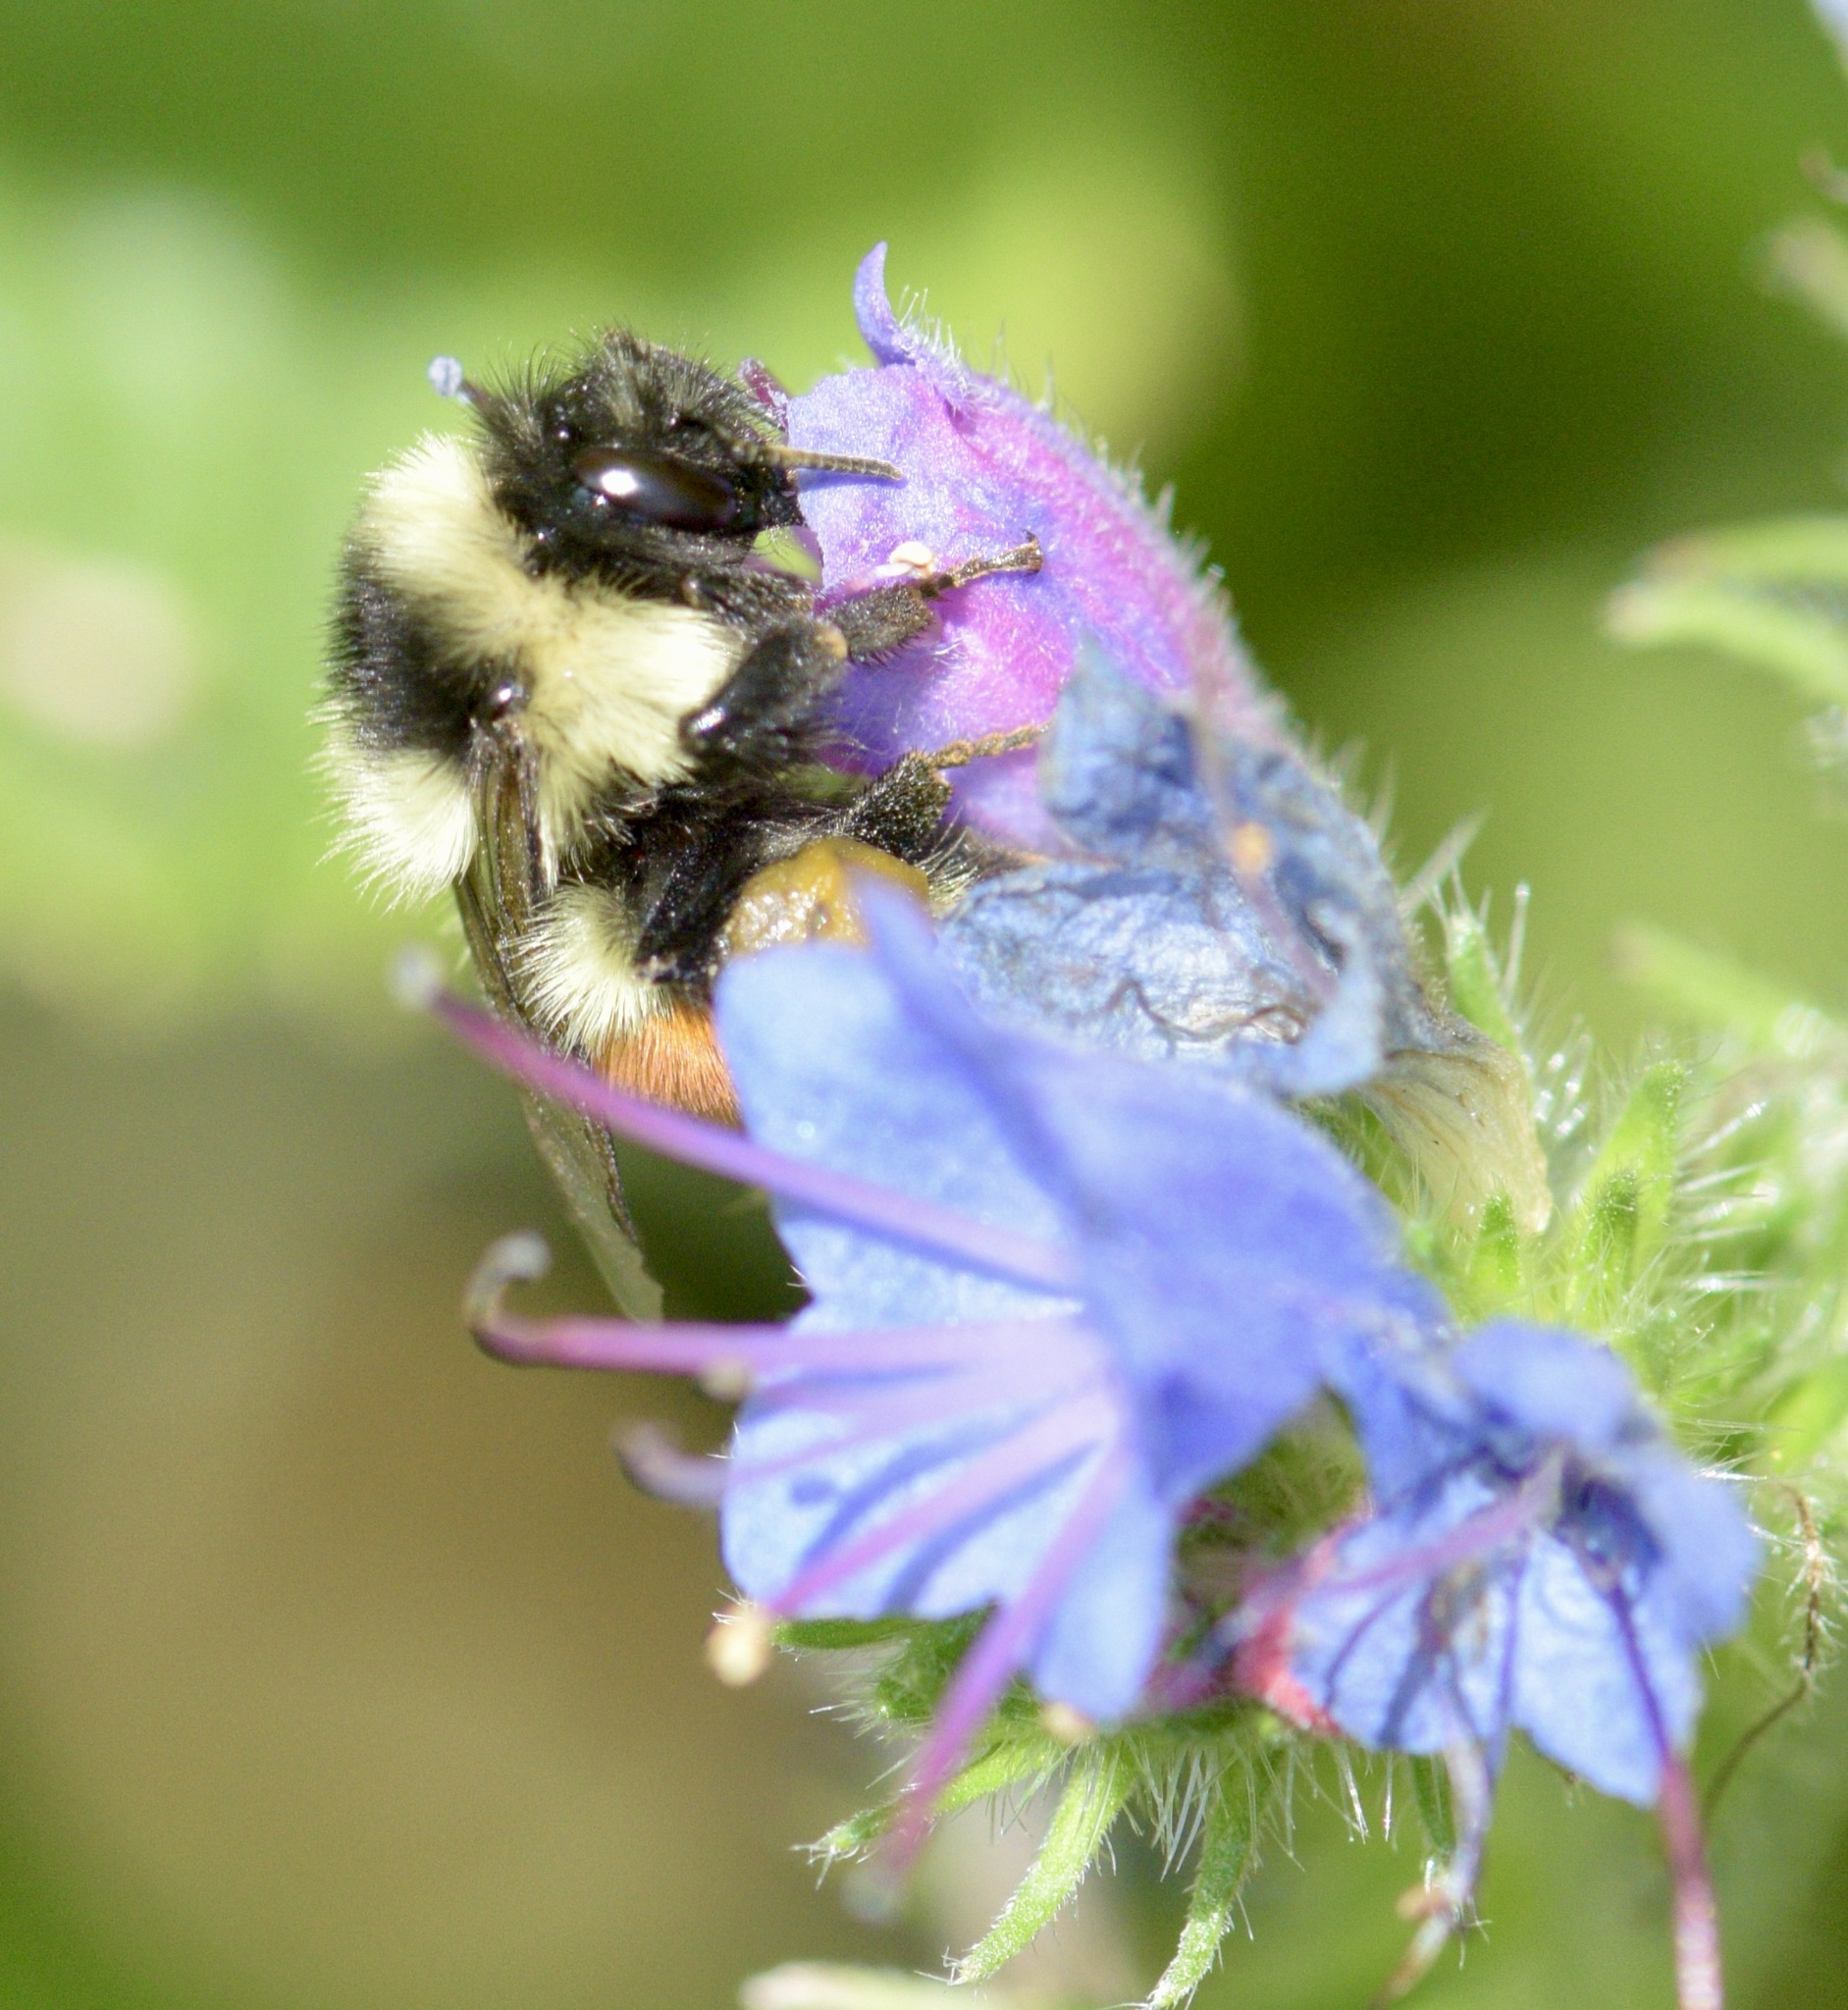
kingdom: Animalia
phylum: Arthropoda
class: Insecta
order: Hymenoptera
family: Apidae
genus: Bombus
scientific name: Bombus ternarius
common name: Tri-colored bumble bee
